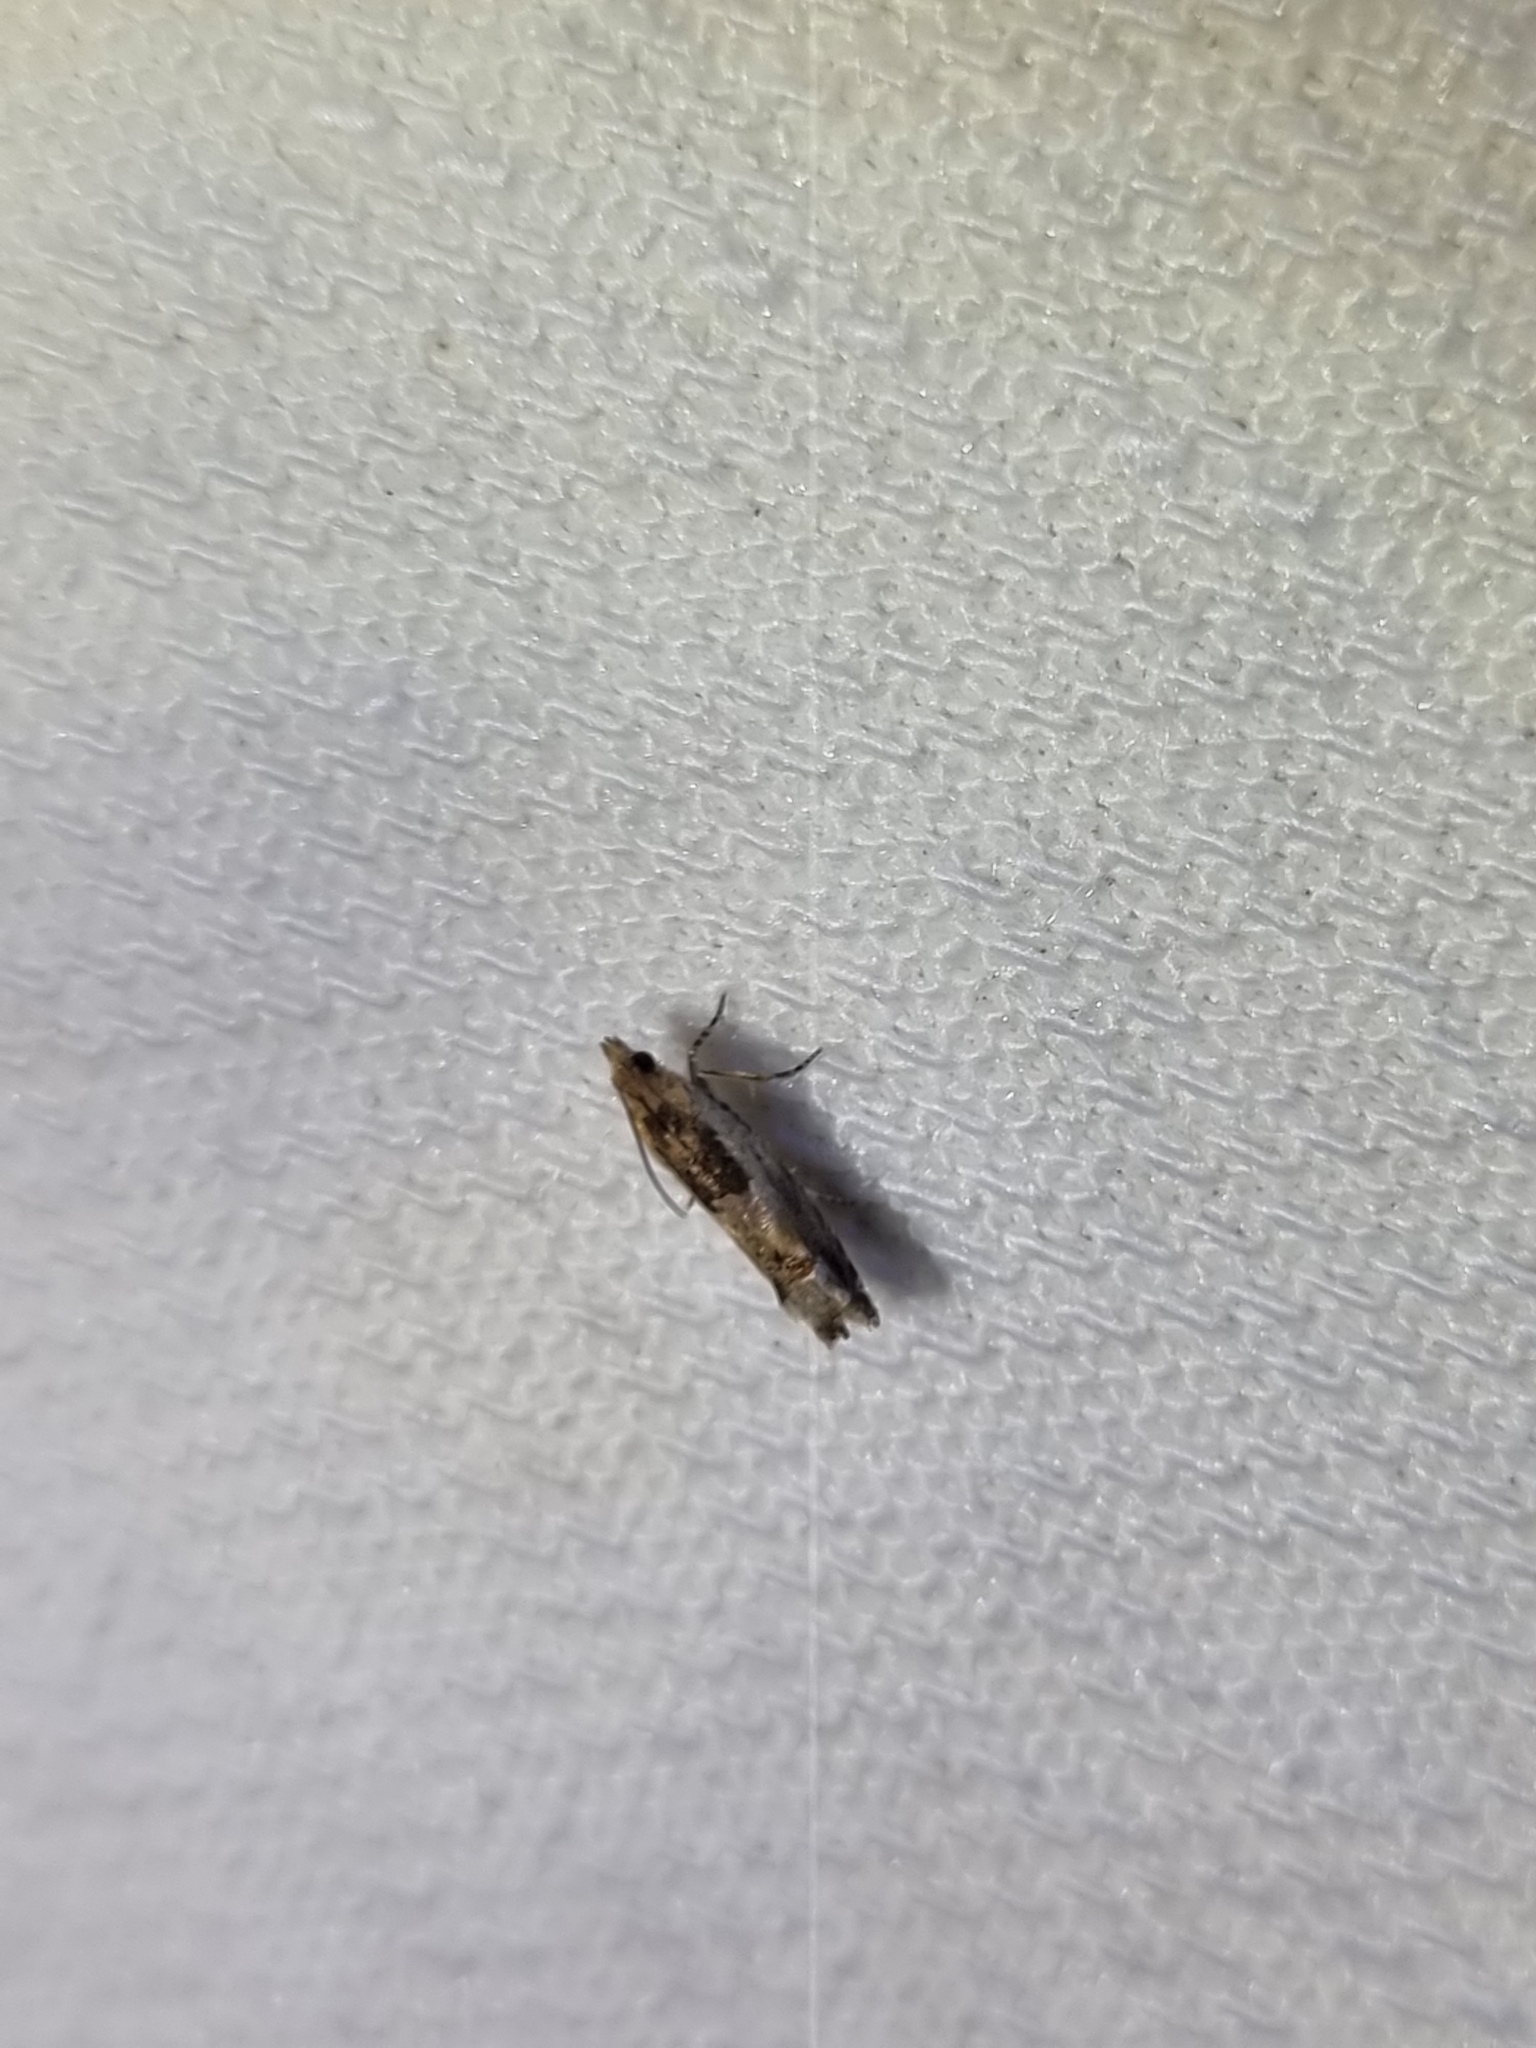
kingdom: Animalia
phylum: Arthropoda
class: Insecta
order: Lepidoptera
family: Tortricidae
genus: Crocidosema
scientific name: Crocidosema plebejana
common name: Southern bell
